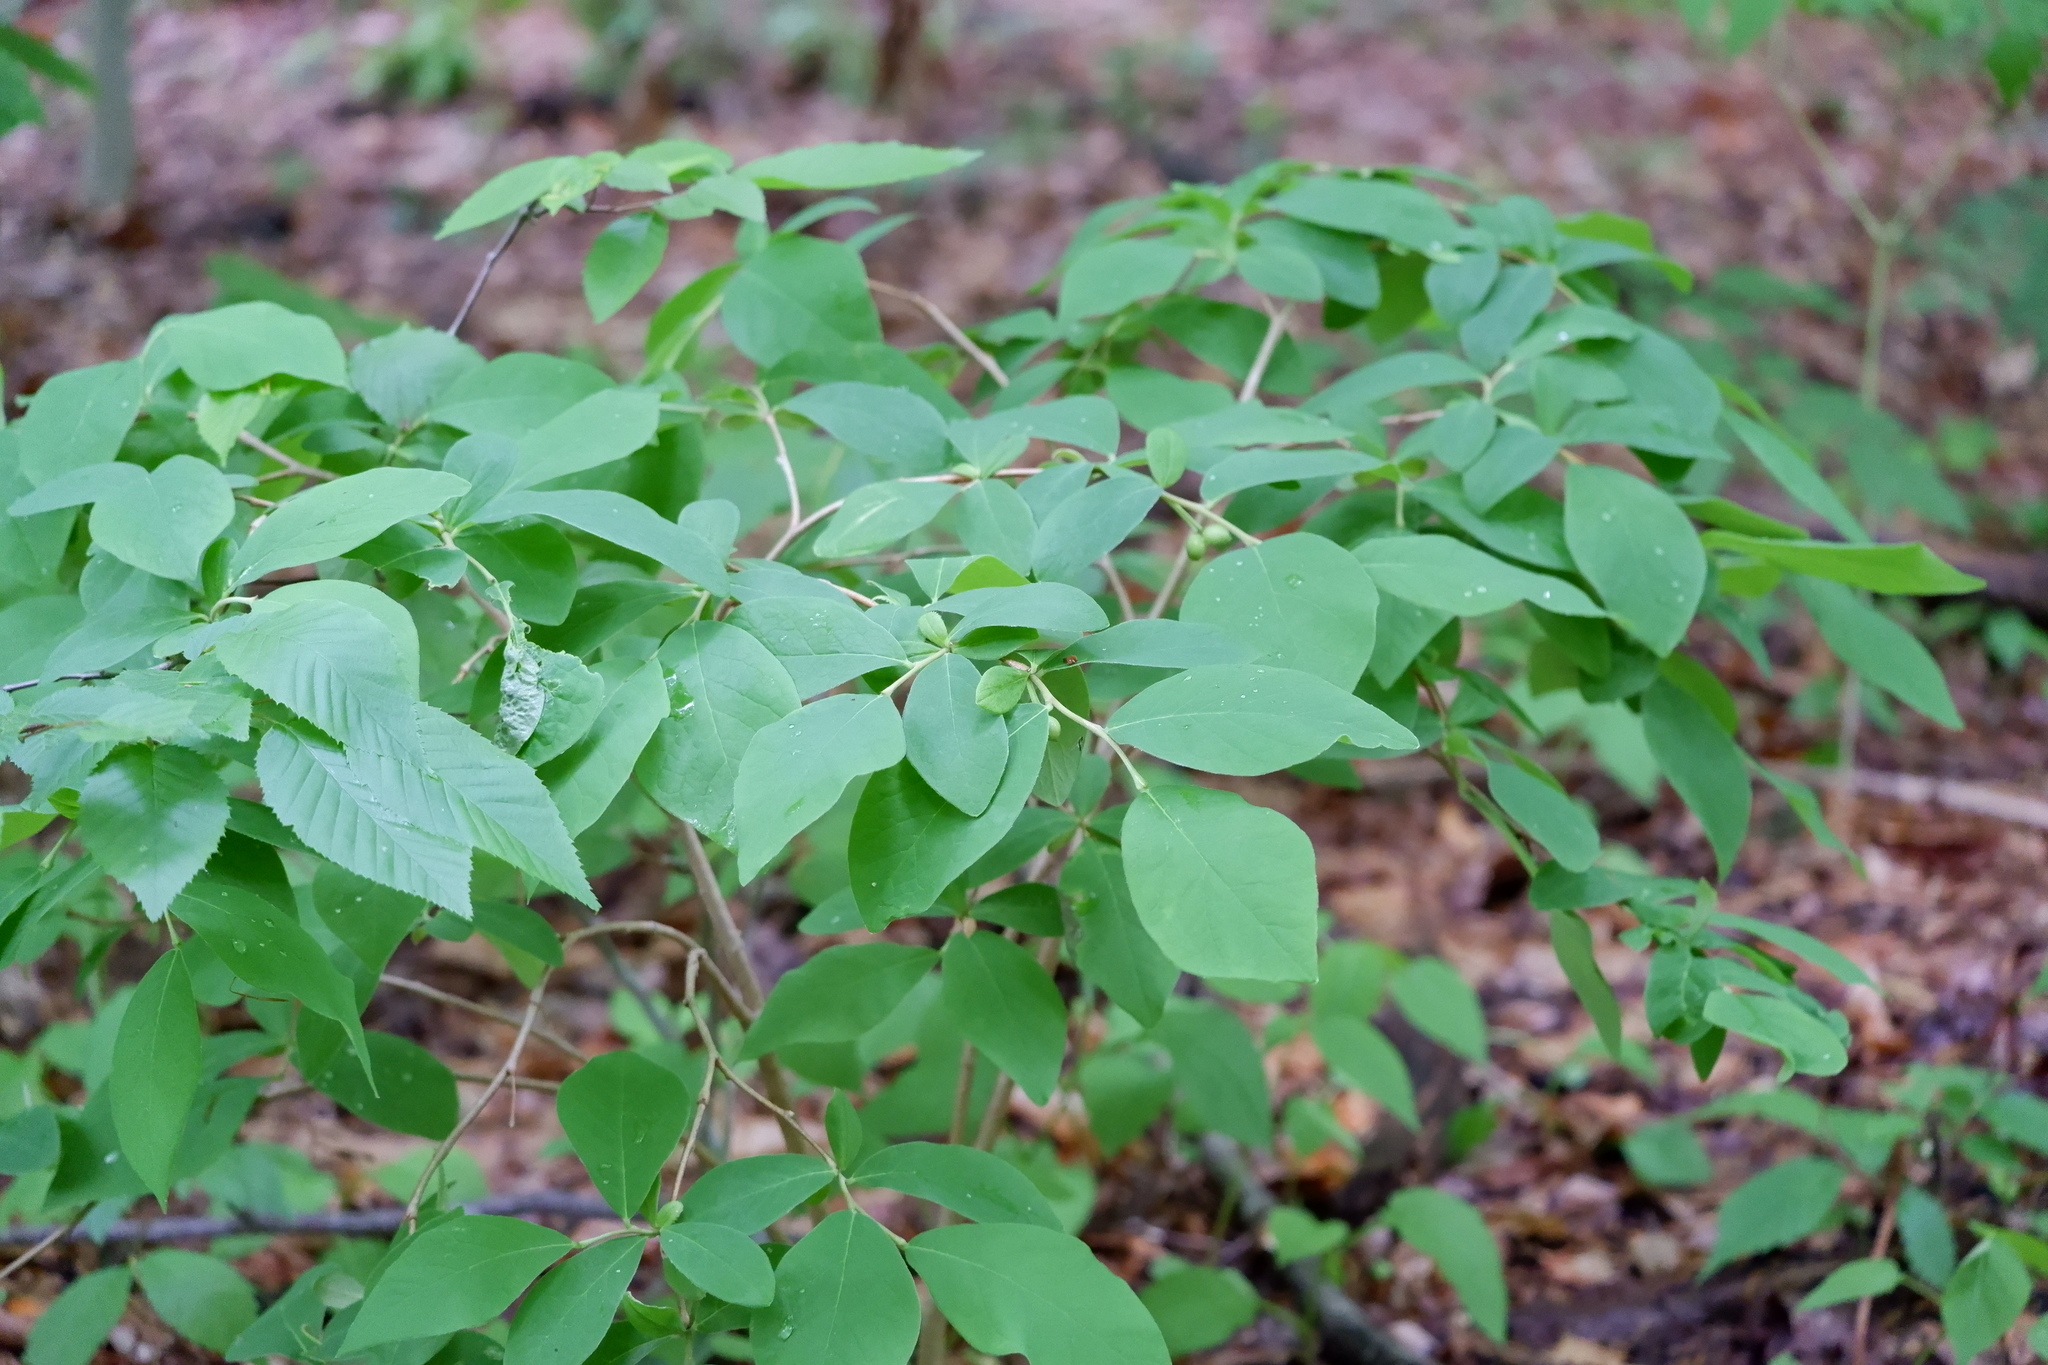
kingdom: Plantae
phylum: Tracheophyta
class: Magnoliopsida
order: Malvales
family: Thymelaeaceae
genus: Dirca
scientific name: Dirca palustris
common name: Leatherwood
